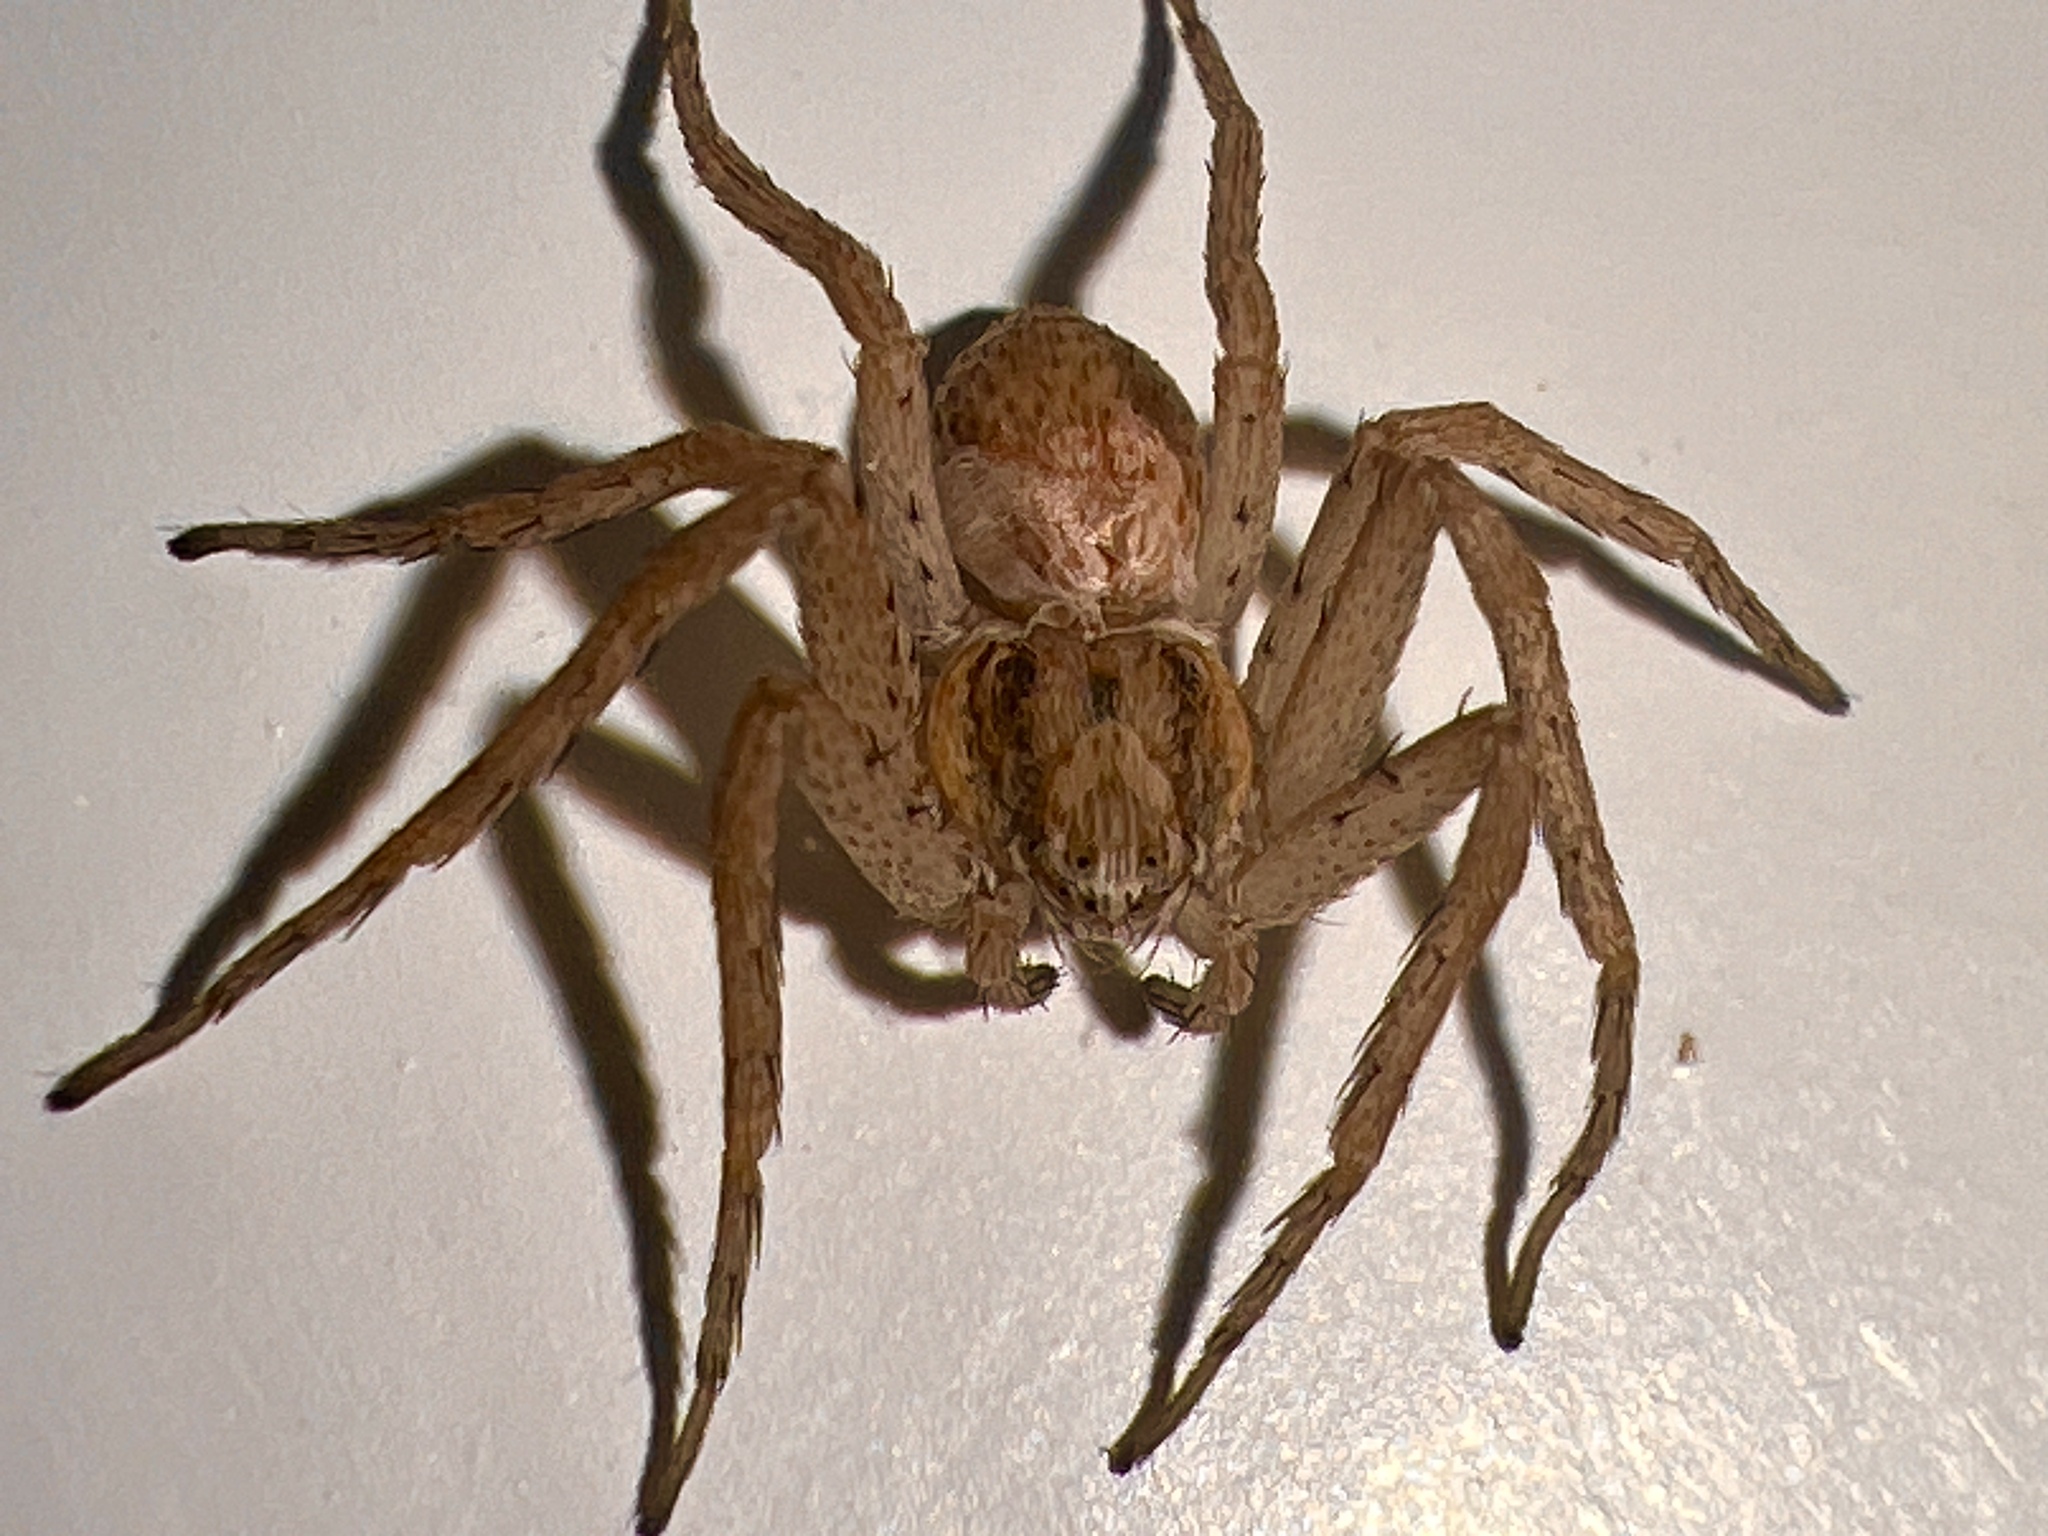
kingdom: Animalia
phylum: Arthropoda
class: Arachnida
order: Araneae
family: Philodromidae
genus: Philodromus
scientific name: Philodromus dispar
